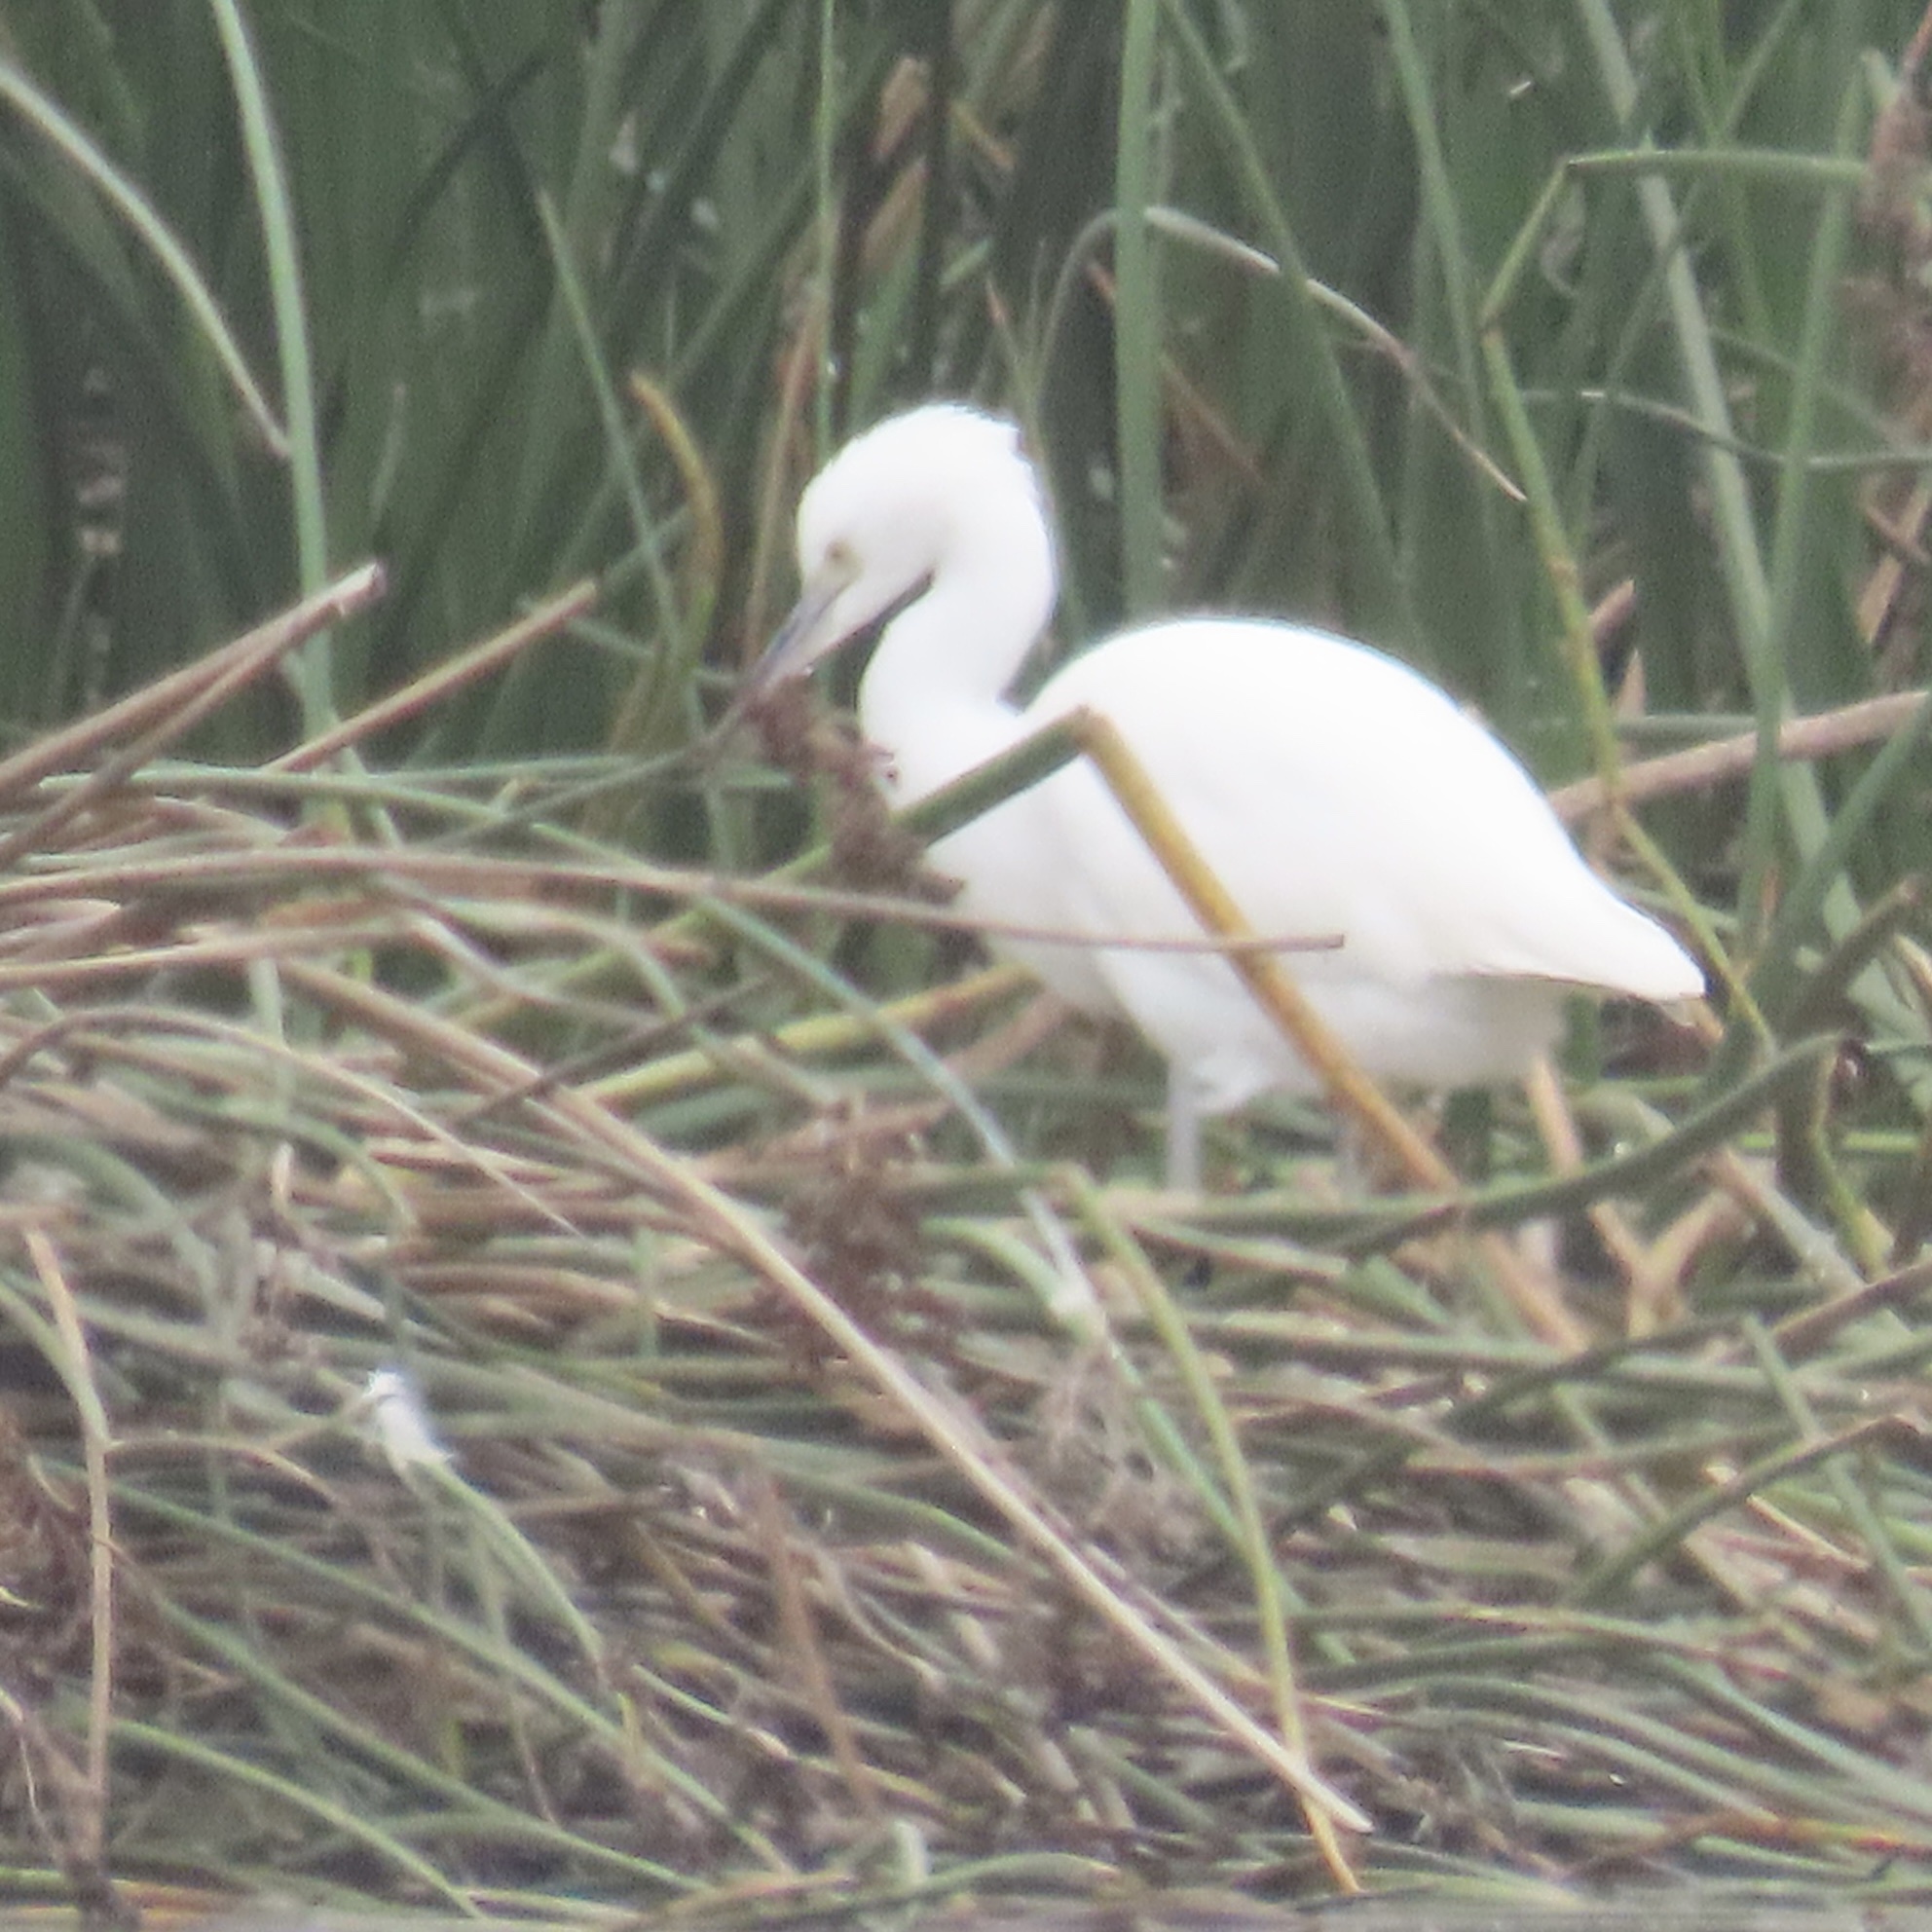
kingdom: Animalia
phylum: Chordata
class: Aves
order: Pelecaniformes
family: Ardeidae
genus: Egretta
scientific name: Egretta thula
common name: Snowy egret
